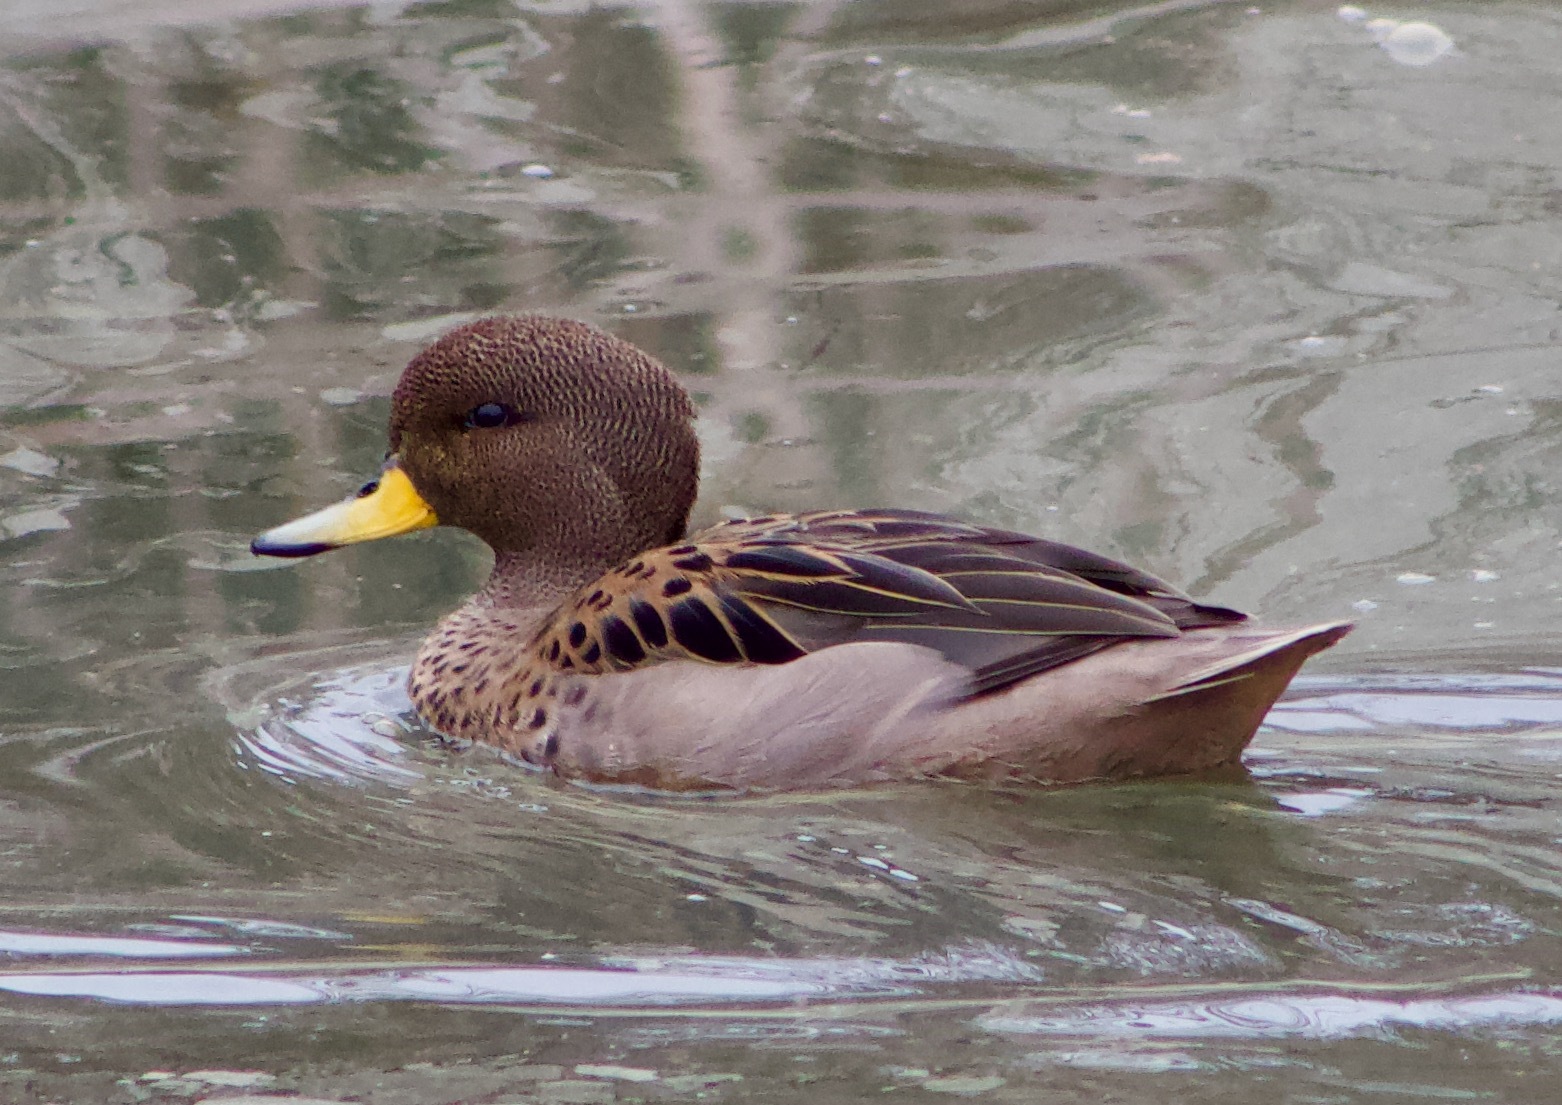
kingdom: Animalia
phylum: Chordata
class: Aves
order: Anseriformes
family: Anatidae
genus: Anas
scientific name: Anas flavirostris
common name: Yellow-billed teal
